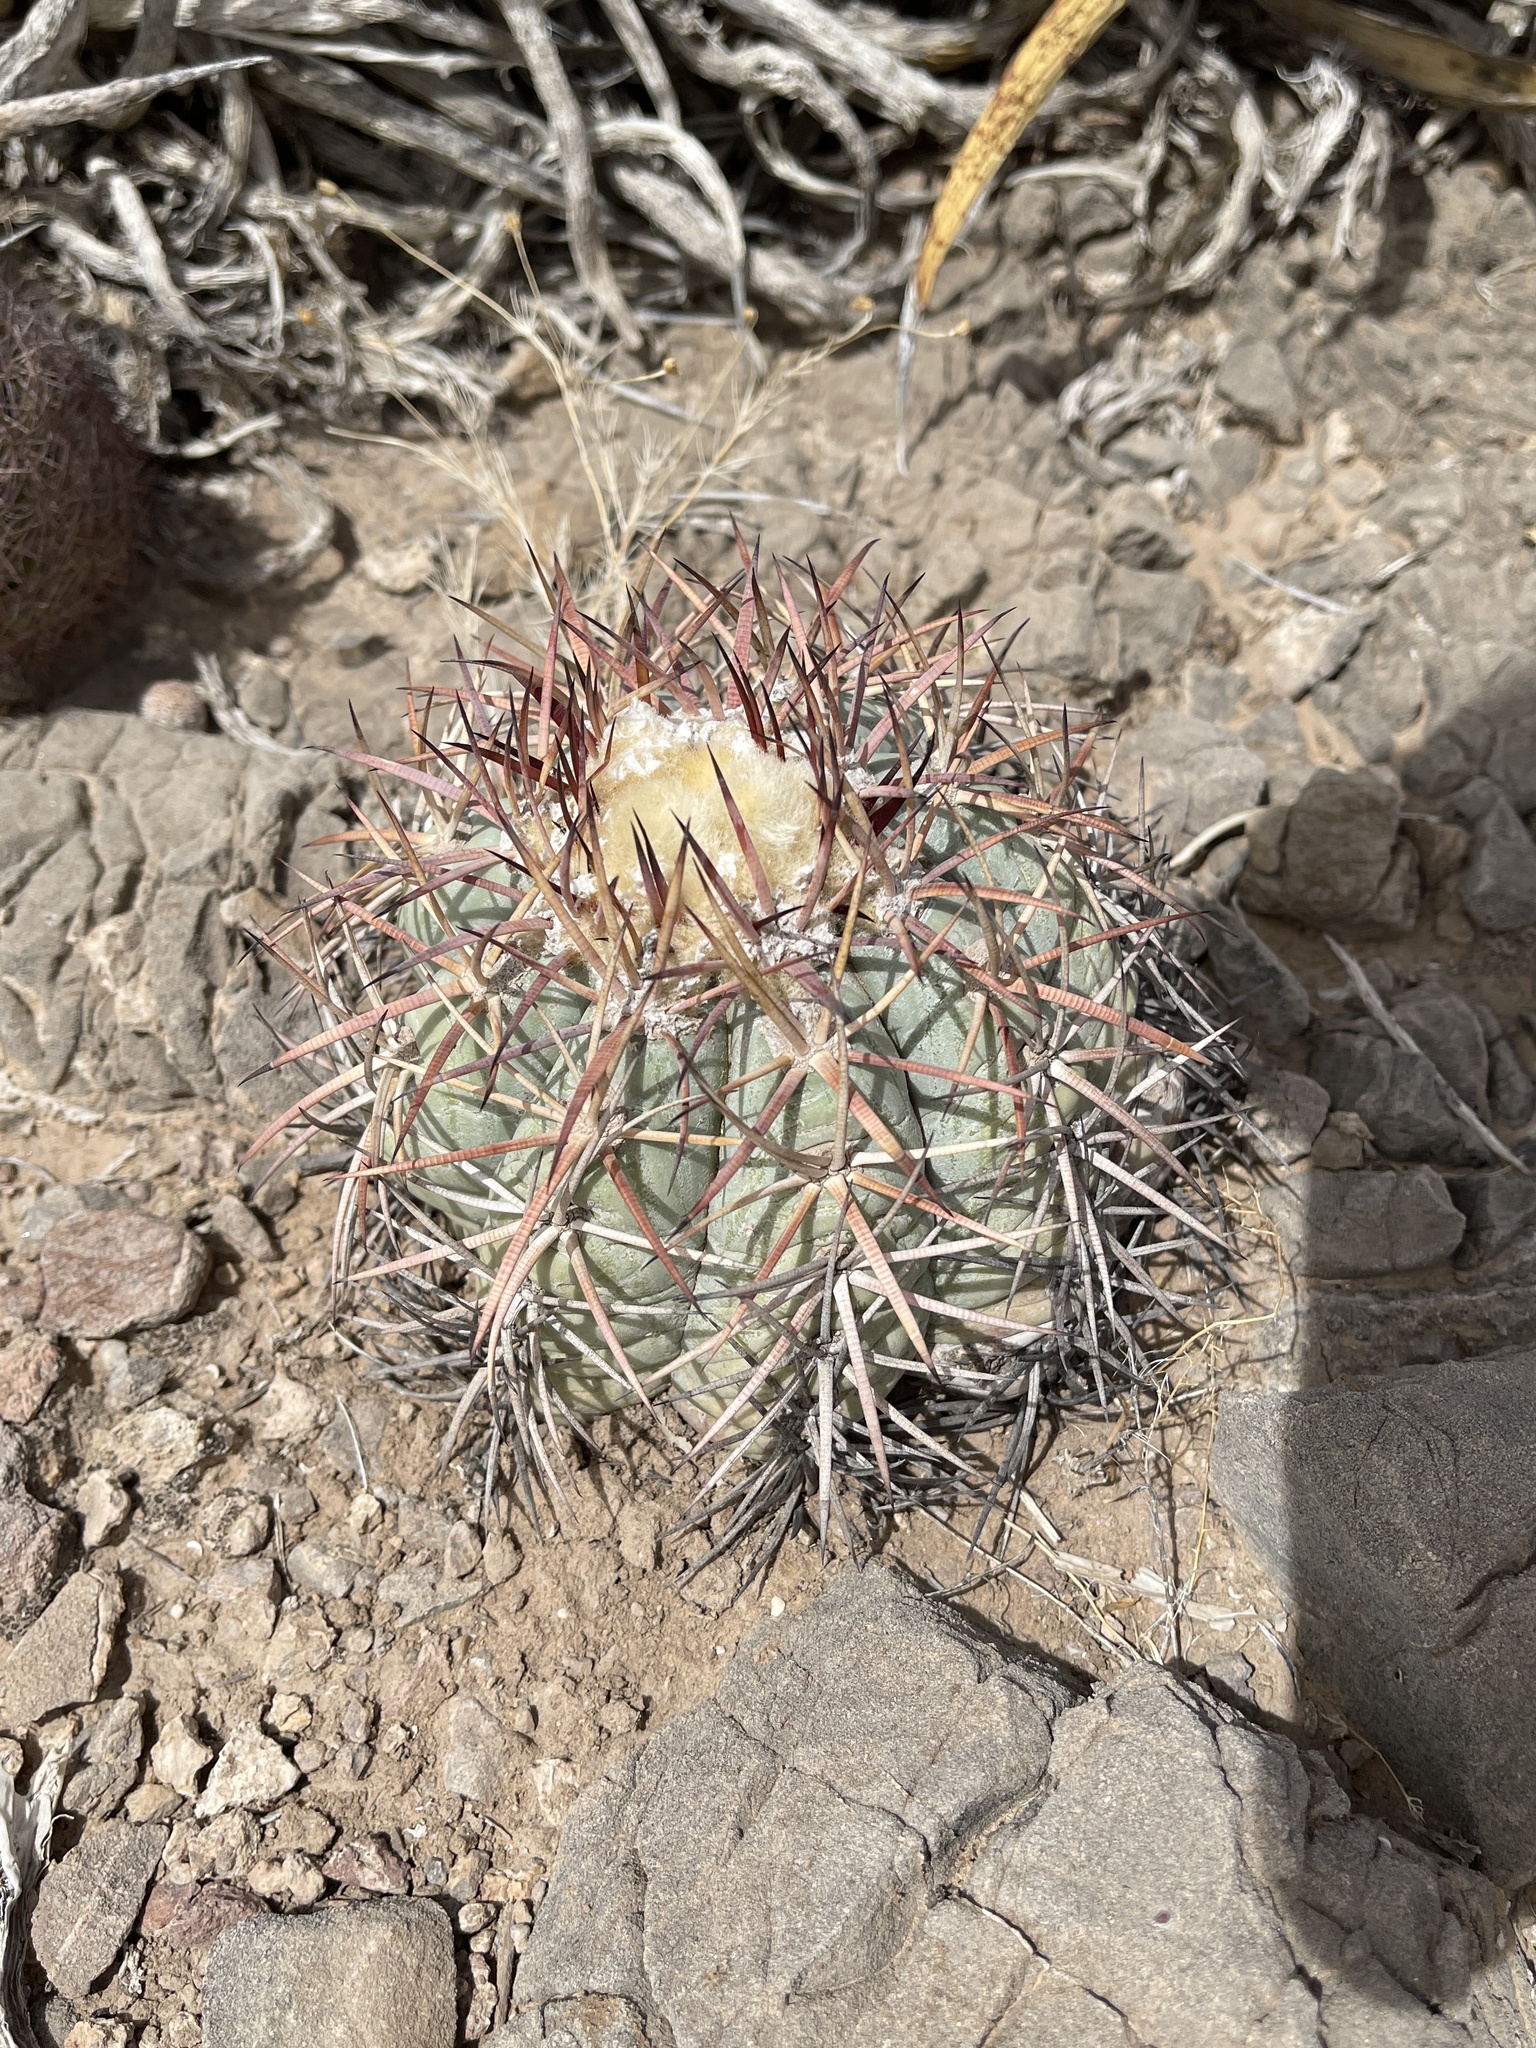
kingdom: Plantae
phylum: Tracheophyta
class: Magnoliopsida
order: Caryophyllales
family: Cactaceae
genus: Echinocactus
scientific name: Echinocactus horizonthalonius
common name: Devilshead
